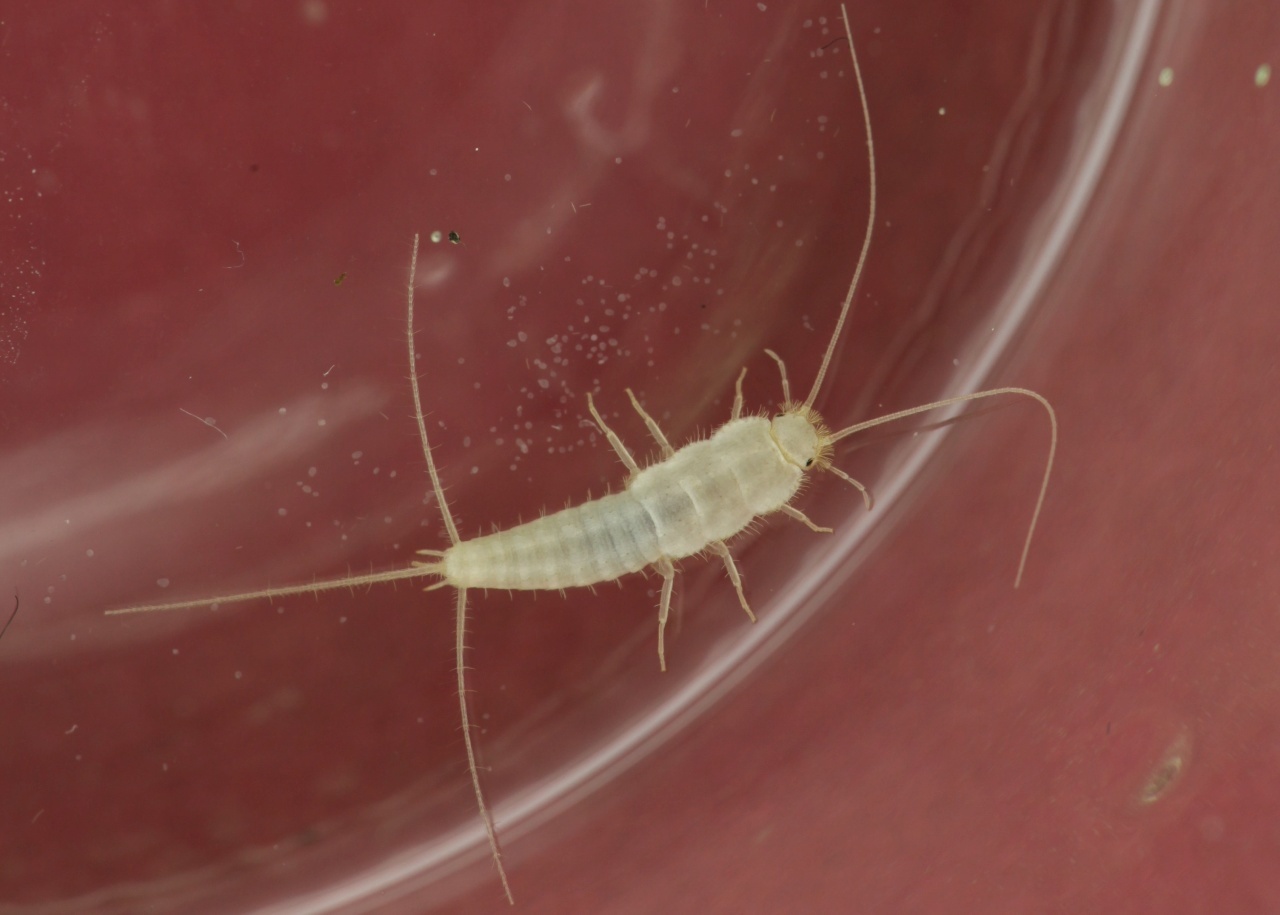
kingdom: Animalia
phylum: Arthropoda
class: Insecta
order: Zygentoma
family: Lepismatidae
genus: Ctenolepisma
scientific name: Ctenolepisma calvum
